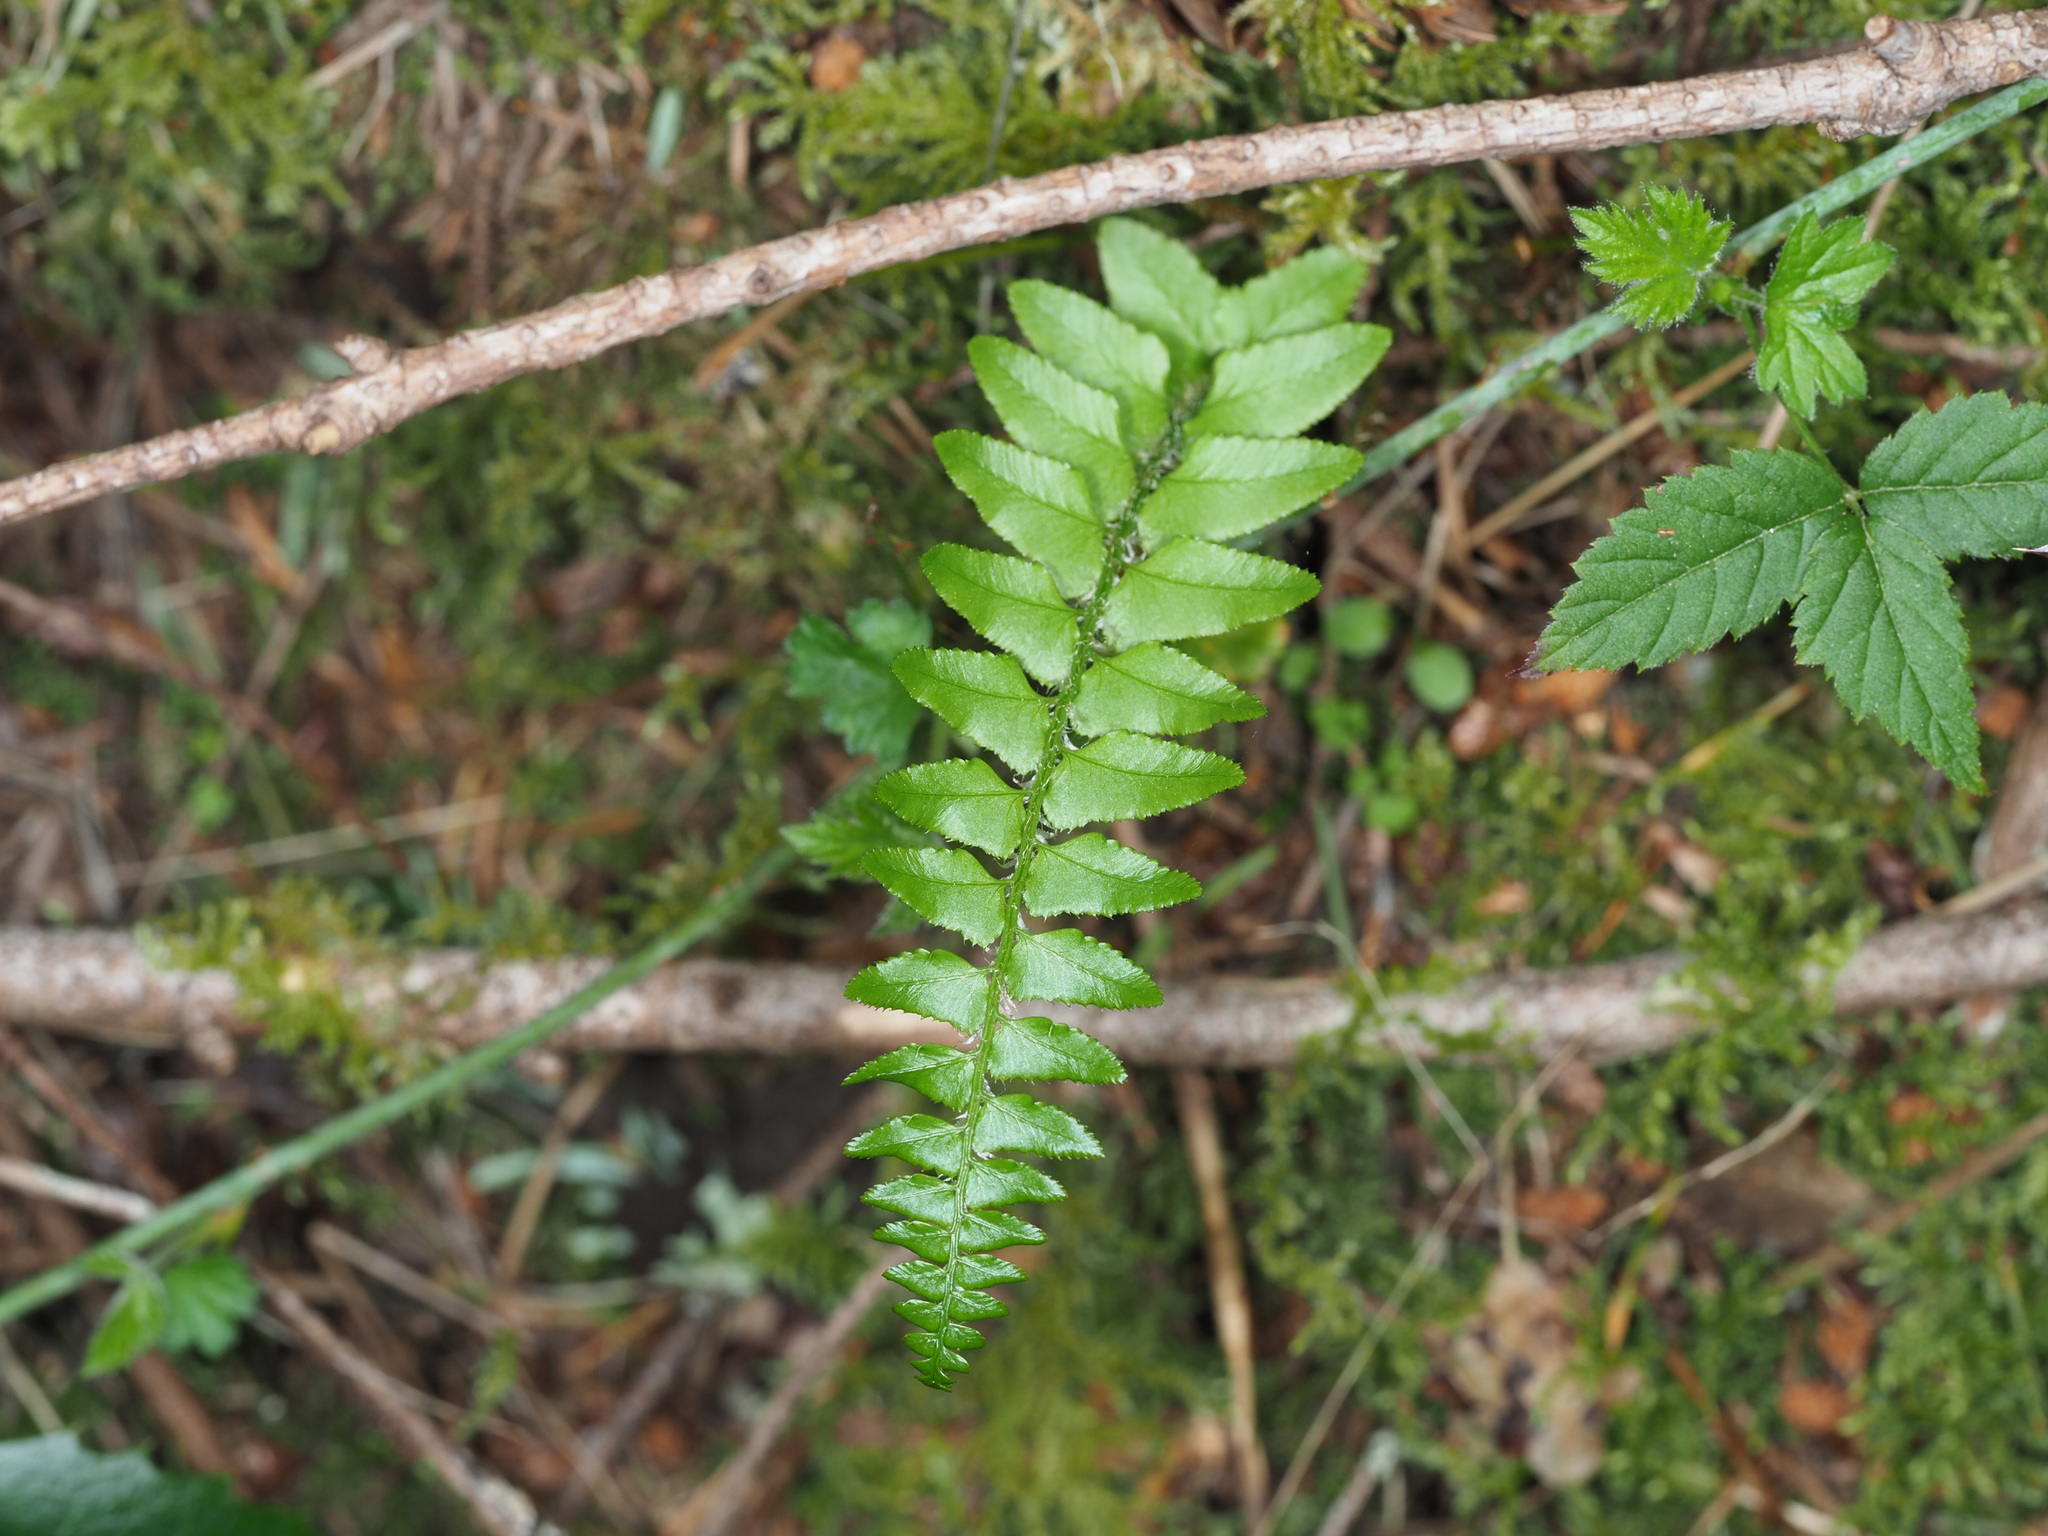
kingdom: Plantae
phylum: Tracheophyta
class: Polypodiopsida
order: Polypodiales
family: Dryopteridaceae
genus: Polystichum
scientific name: Polystichum munitum
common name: Western sword-fern
